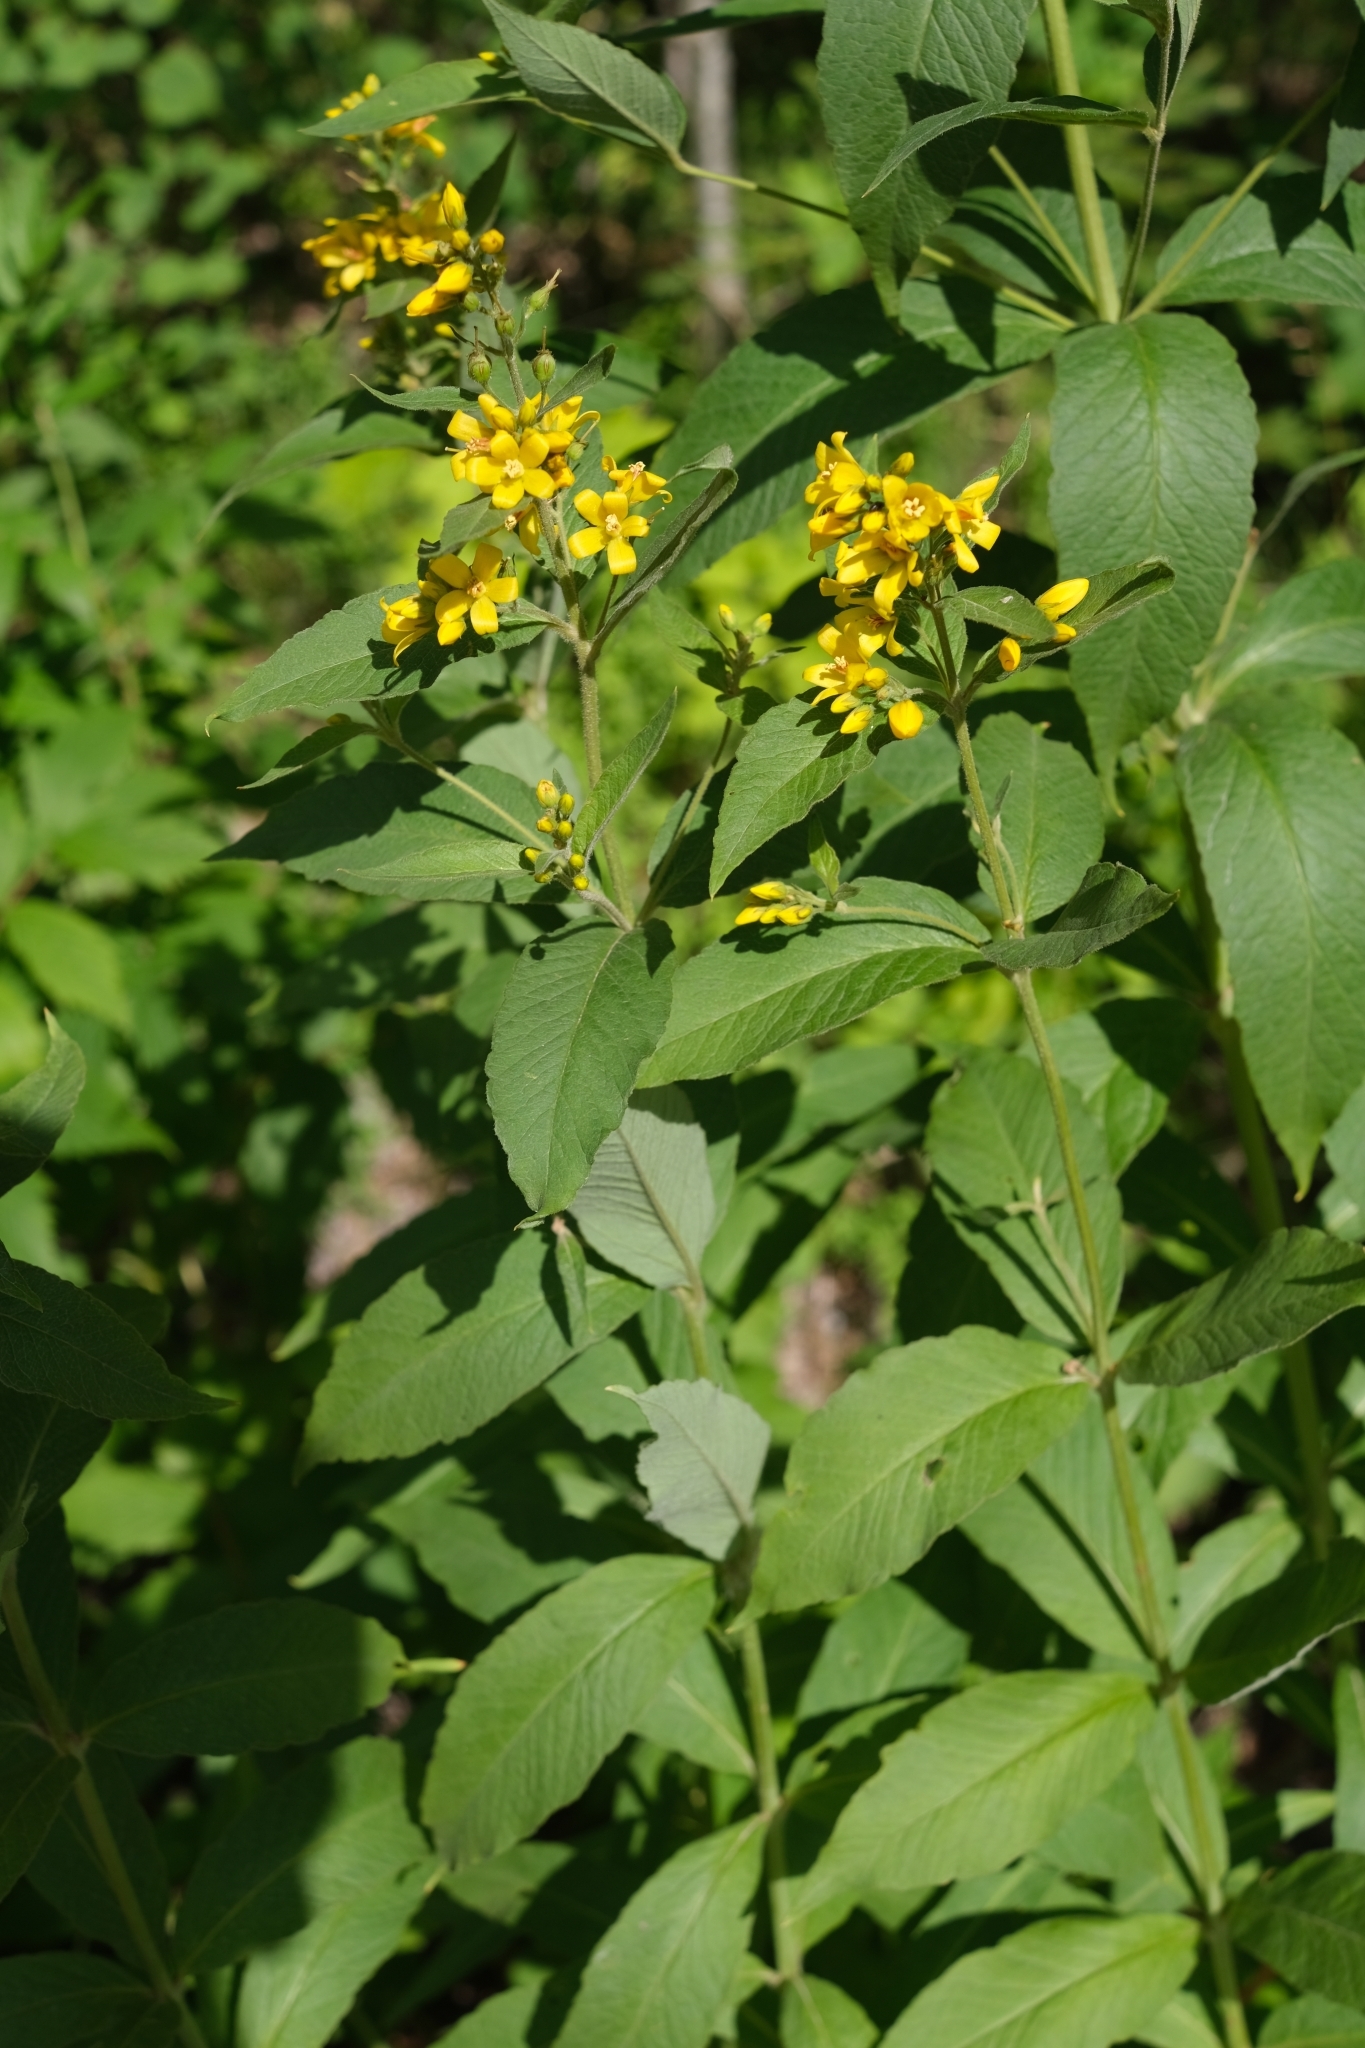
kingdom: Plantae
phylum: Tracheophyta
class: Magnoliopsida
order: Ericales
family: Primulaceae
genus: Lysimachia
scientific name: Lysimachia vulgaris
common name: Yellow loosestrife
